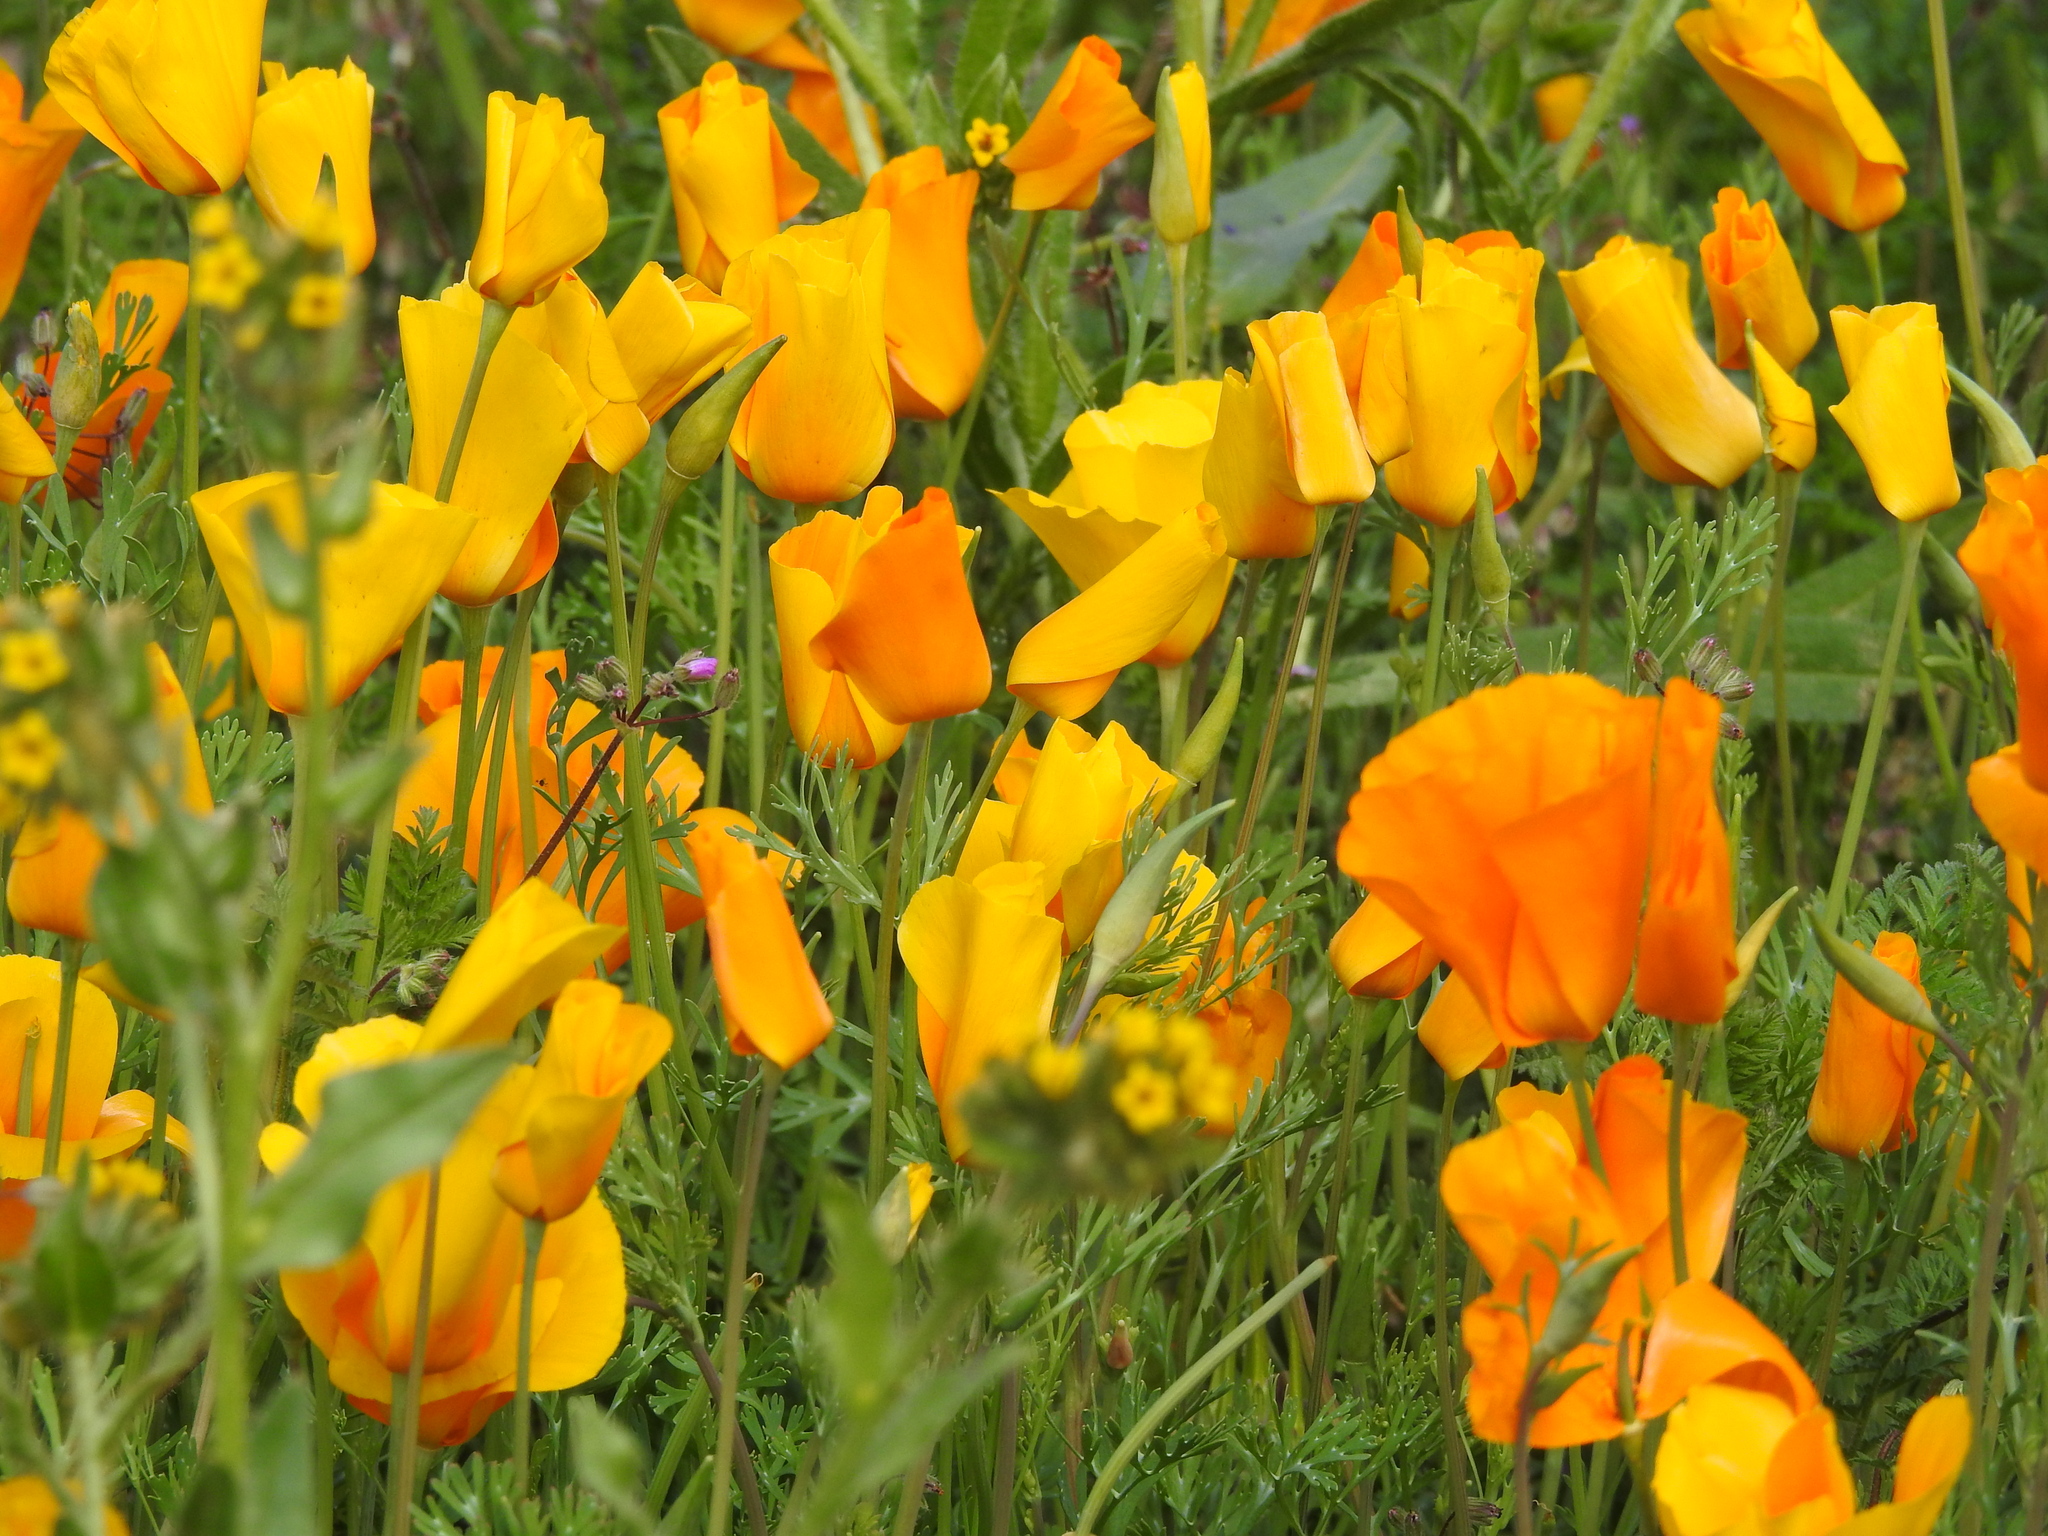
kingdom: Plantae
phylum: Tracheophyta
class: Magnoliopsida
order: Ranunculales
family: Papaveraceae
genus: Eschscholzia
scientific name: Eschscholzia californica
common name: California poppy
